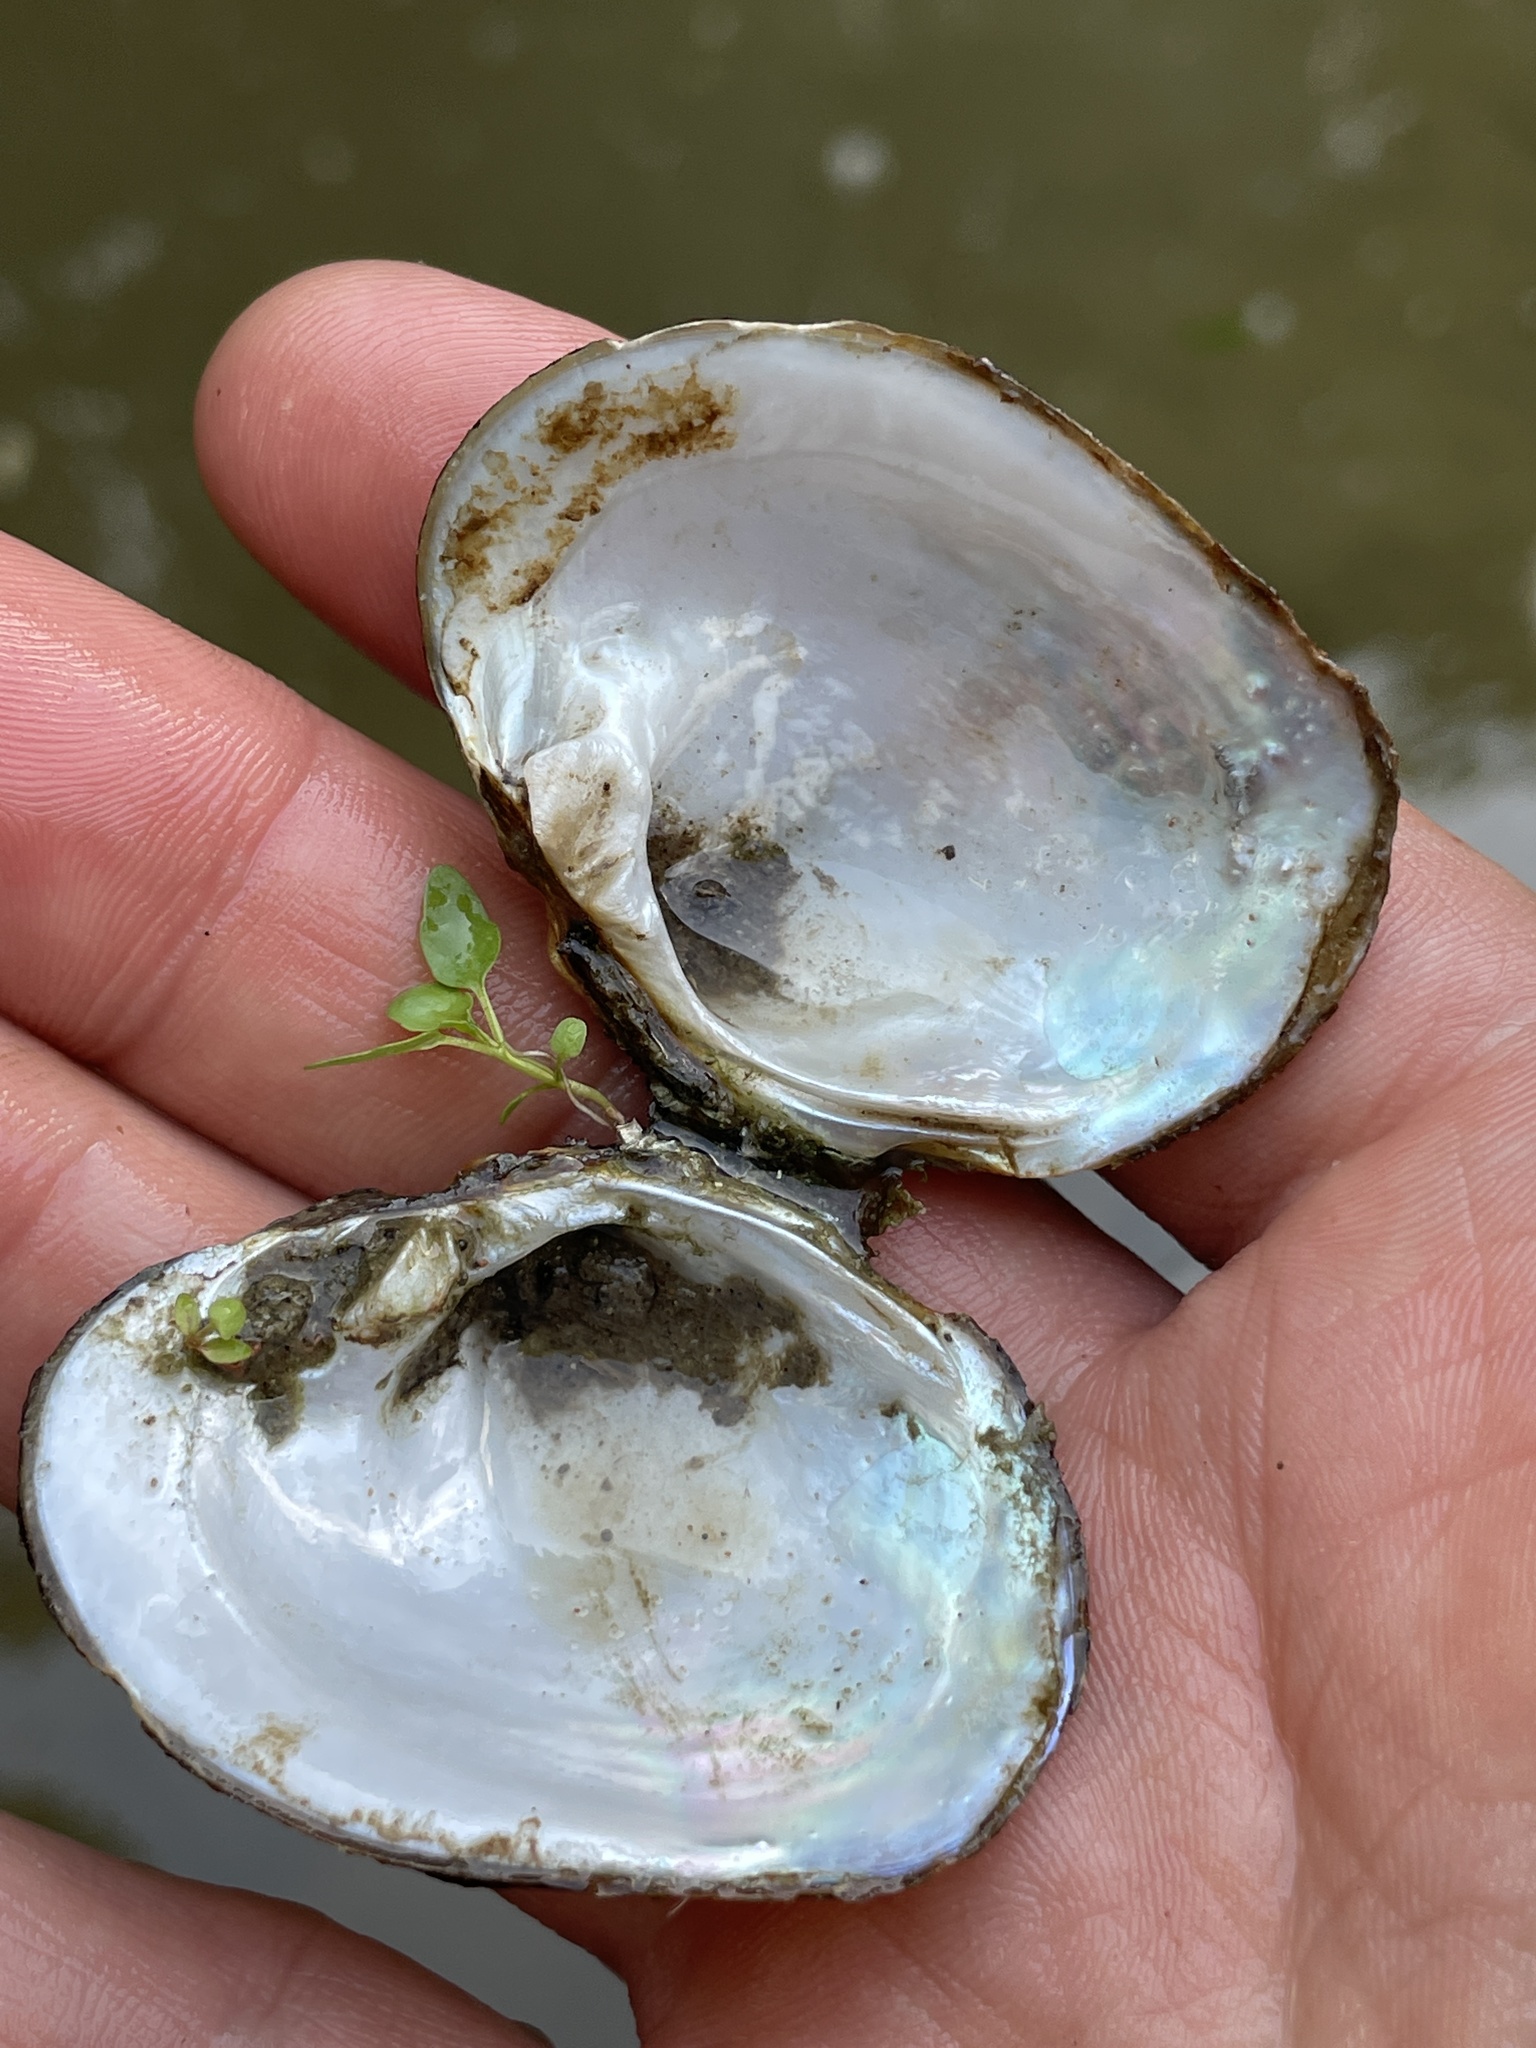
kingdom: Animalia
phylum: Mollusca
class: Bivalvia
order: Unionida
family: Unionidae
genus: Cyclonaias
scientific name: Cyclonaias pustulosa
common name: Pimpleback
